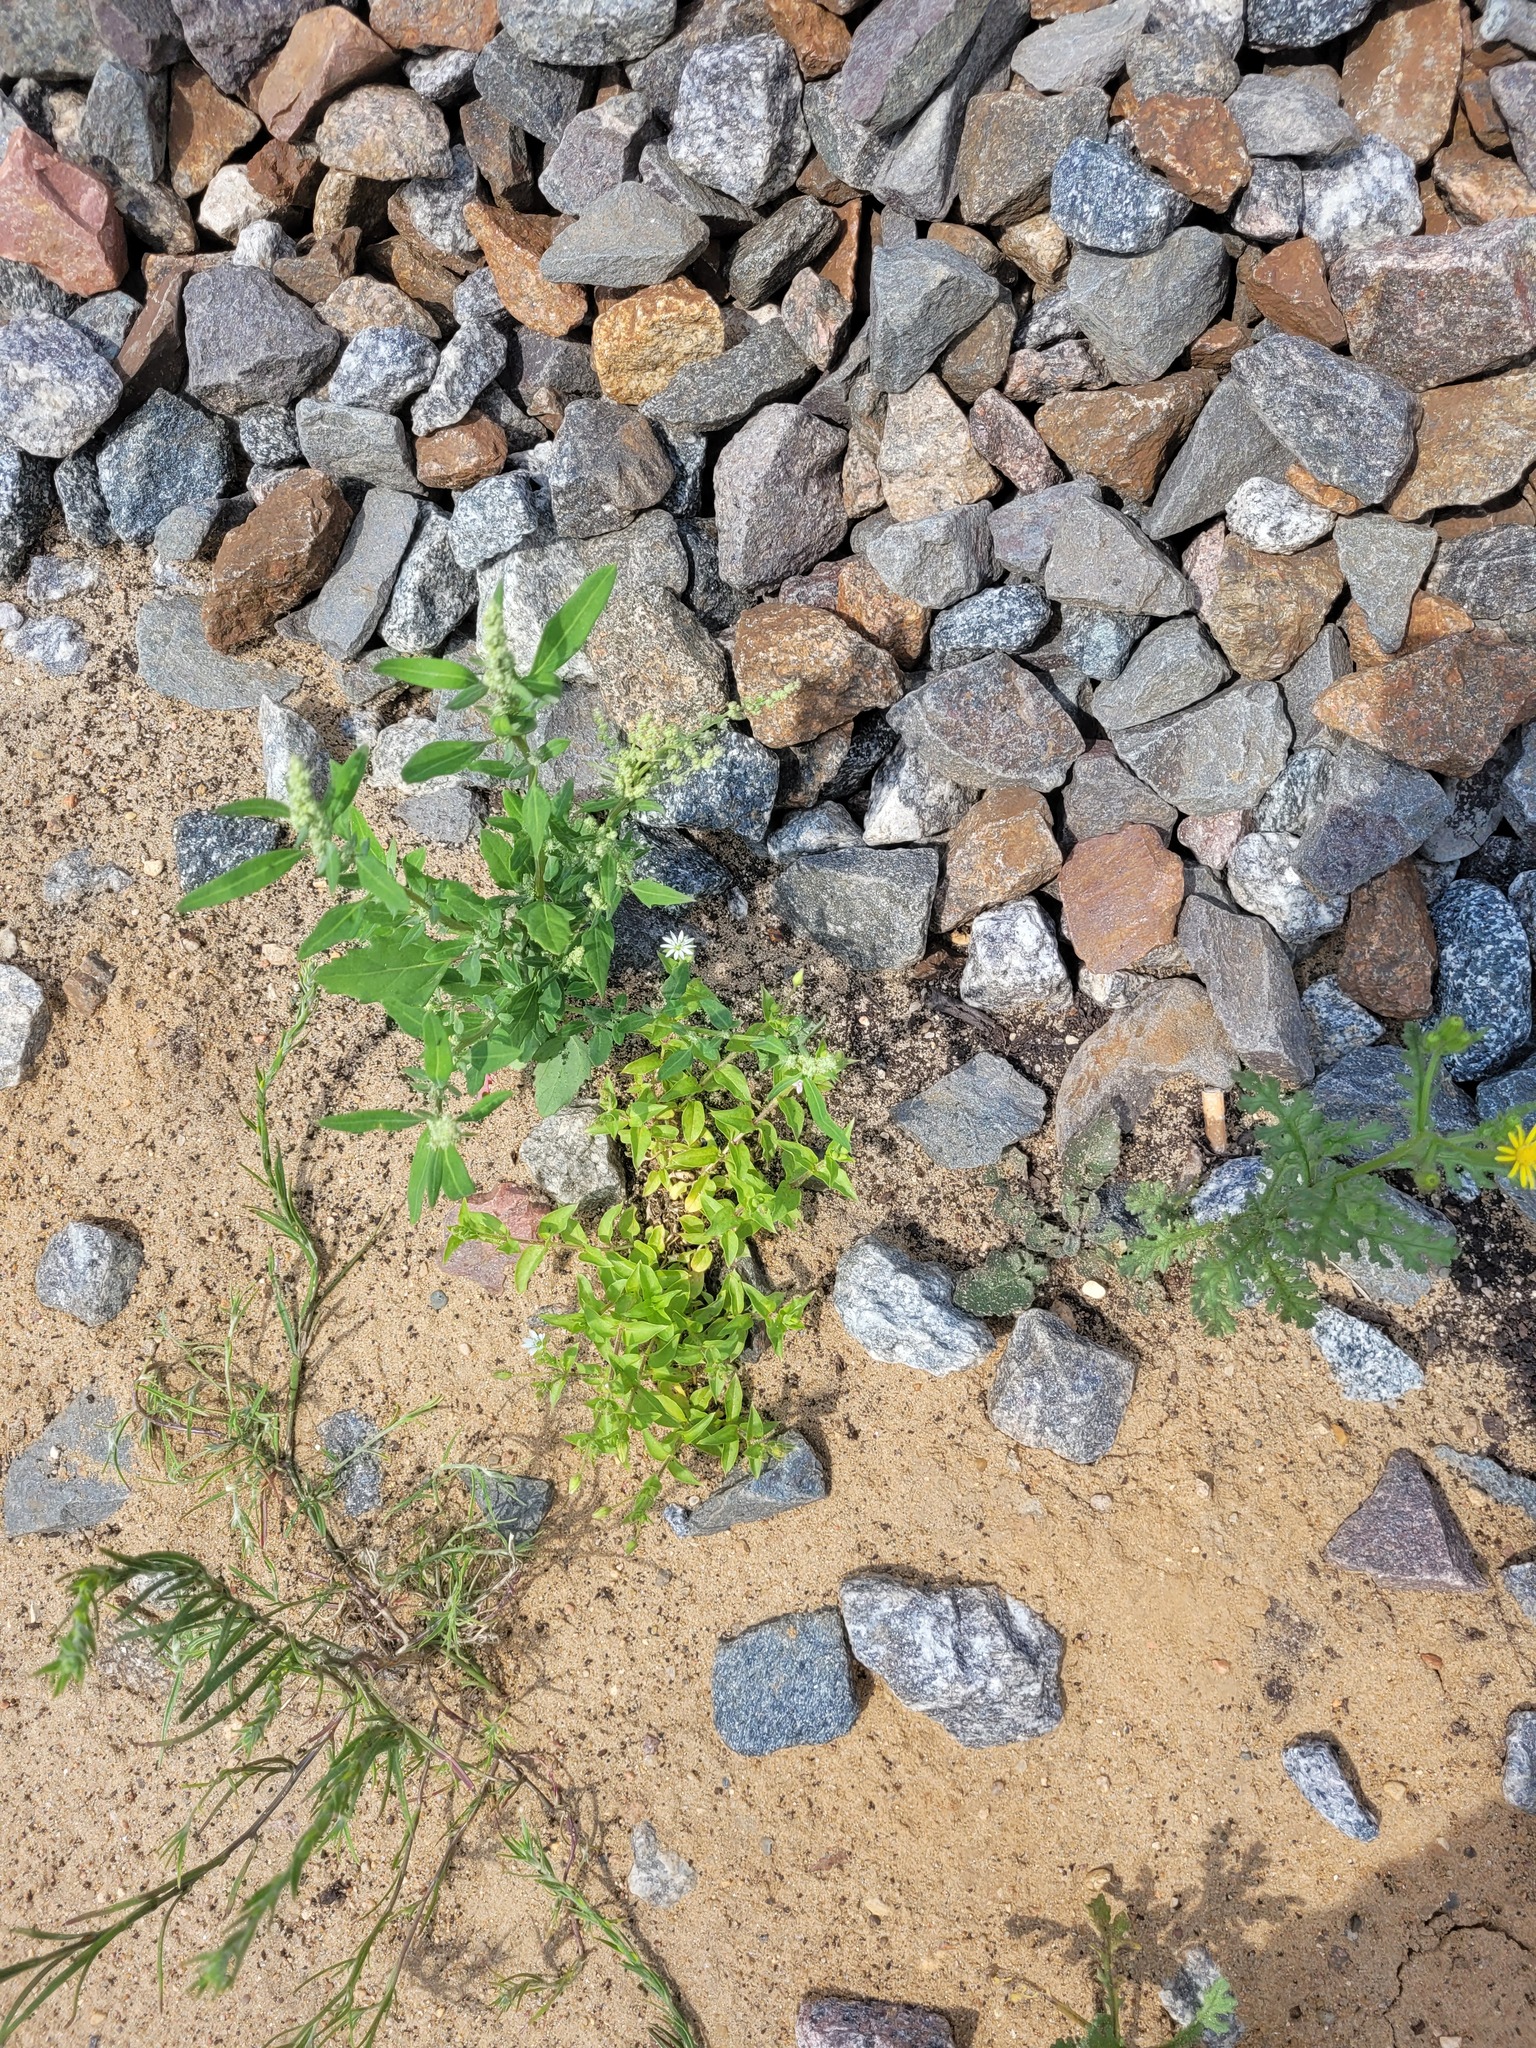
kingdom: Plantae
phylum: Tracheophyta
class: Magnoliopsida
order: Caryophyllales
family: Caryophyllaceae
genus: Stellaria
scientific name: Stellaria aquatica
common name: Water chickweed
